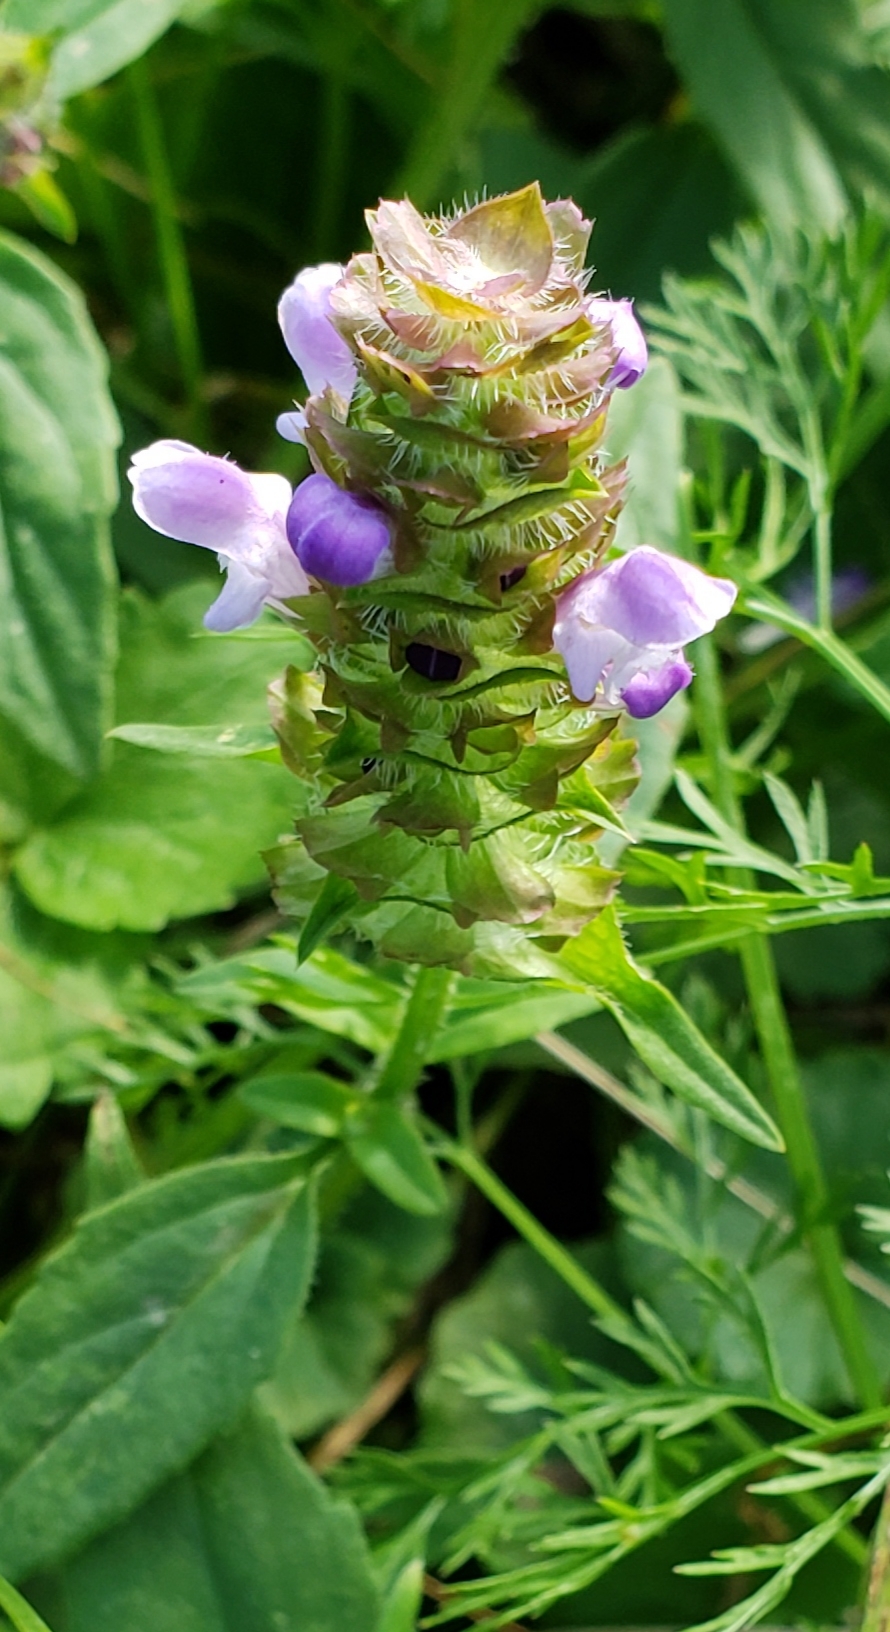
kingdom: Plantae
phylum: Tracheophyta
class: Magnoliopsida
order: Lamiales
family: Lamiaceae
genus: Prunella
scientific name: Prunella vulgaris
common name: Heal-all
